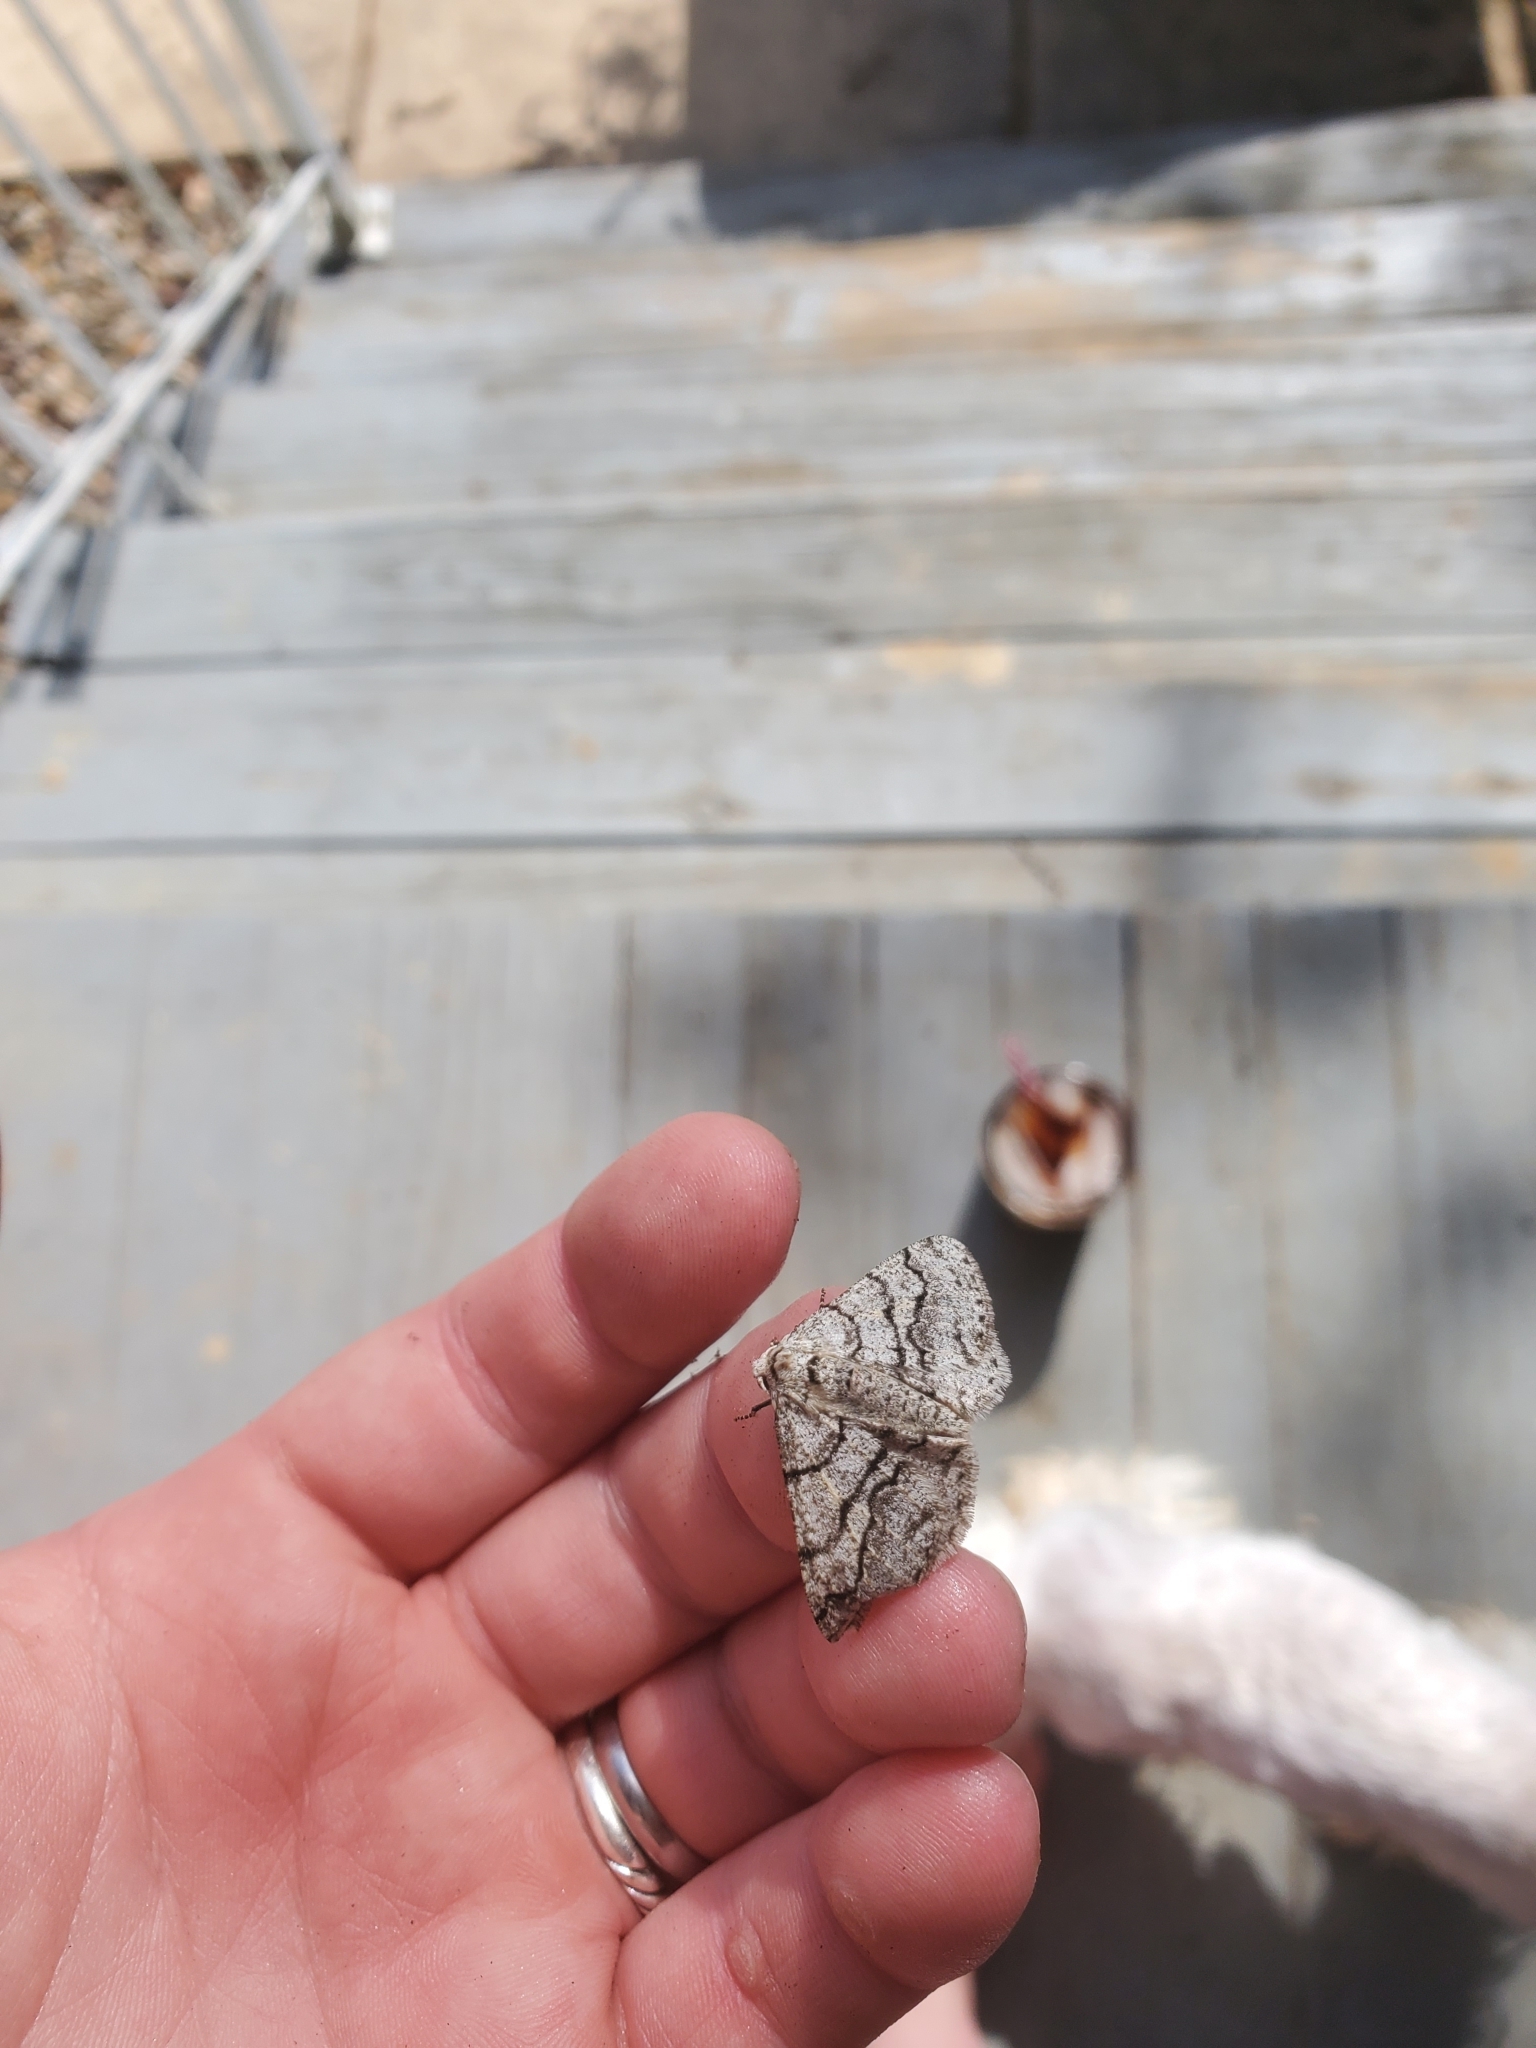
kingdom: Animalia
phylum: Arthropoda
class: Insecta
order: Lepidoptera
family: Geometridae
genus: Phigalia
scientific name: Phigalia titea
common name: Spiny looper
